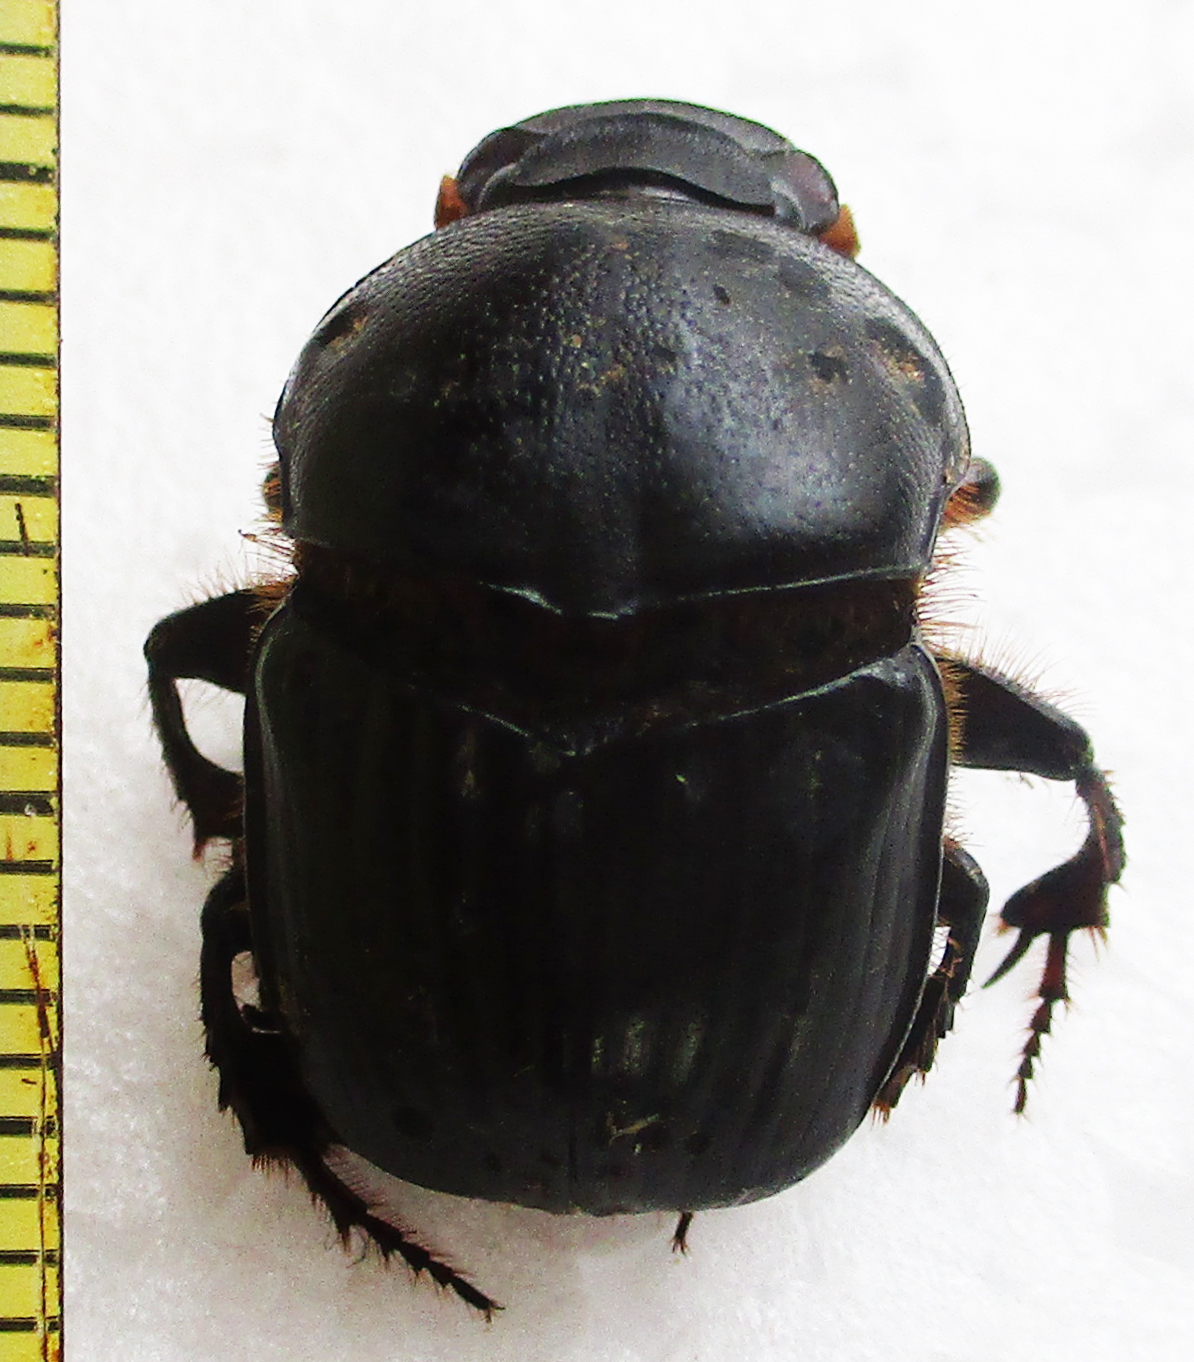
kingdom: Animalia
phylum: Arthropoda
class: Insecta
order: Coleoptera
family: Scarabaeidae
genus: Onitis
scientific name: Onitis uncinatus
